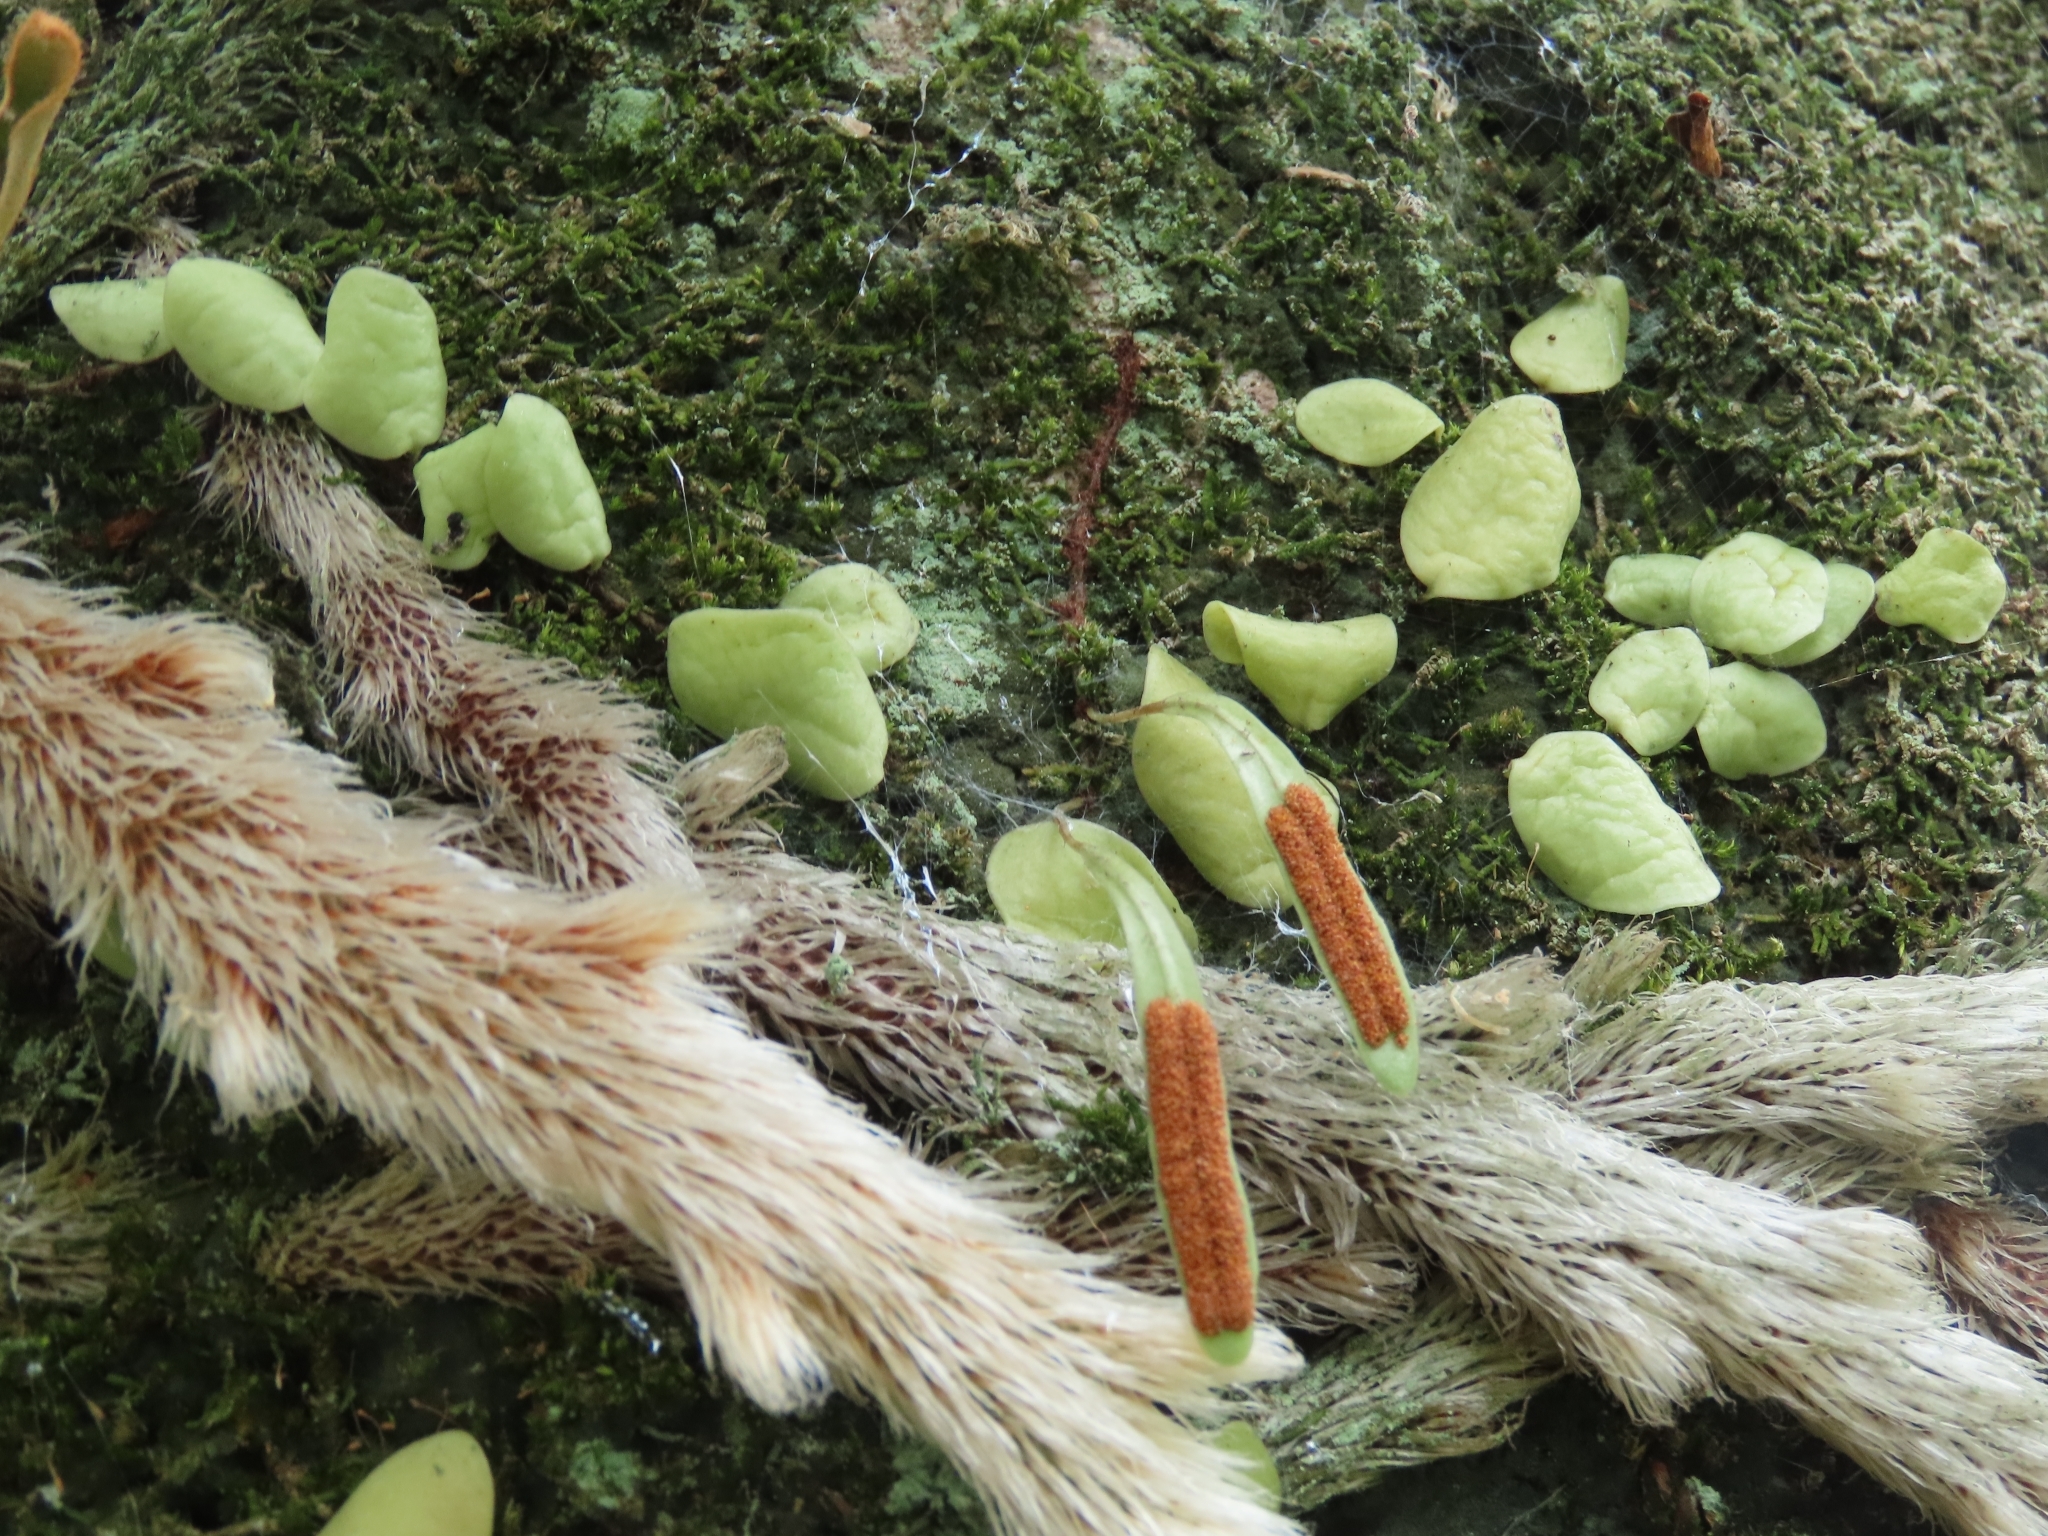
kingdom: Plantae
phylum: Tracheophyta
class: Polypodiopsida
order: Polypodiales
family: Davalliaceae
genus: Davallia
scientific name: Davallia griffithiana
